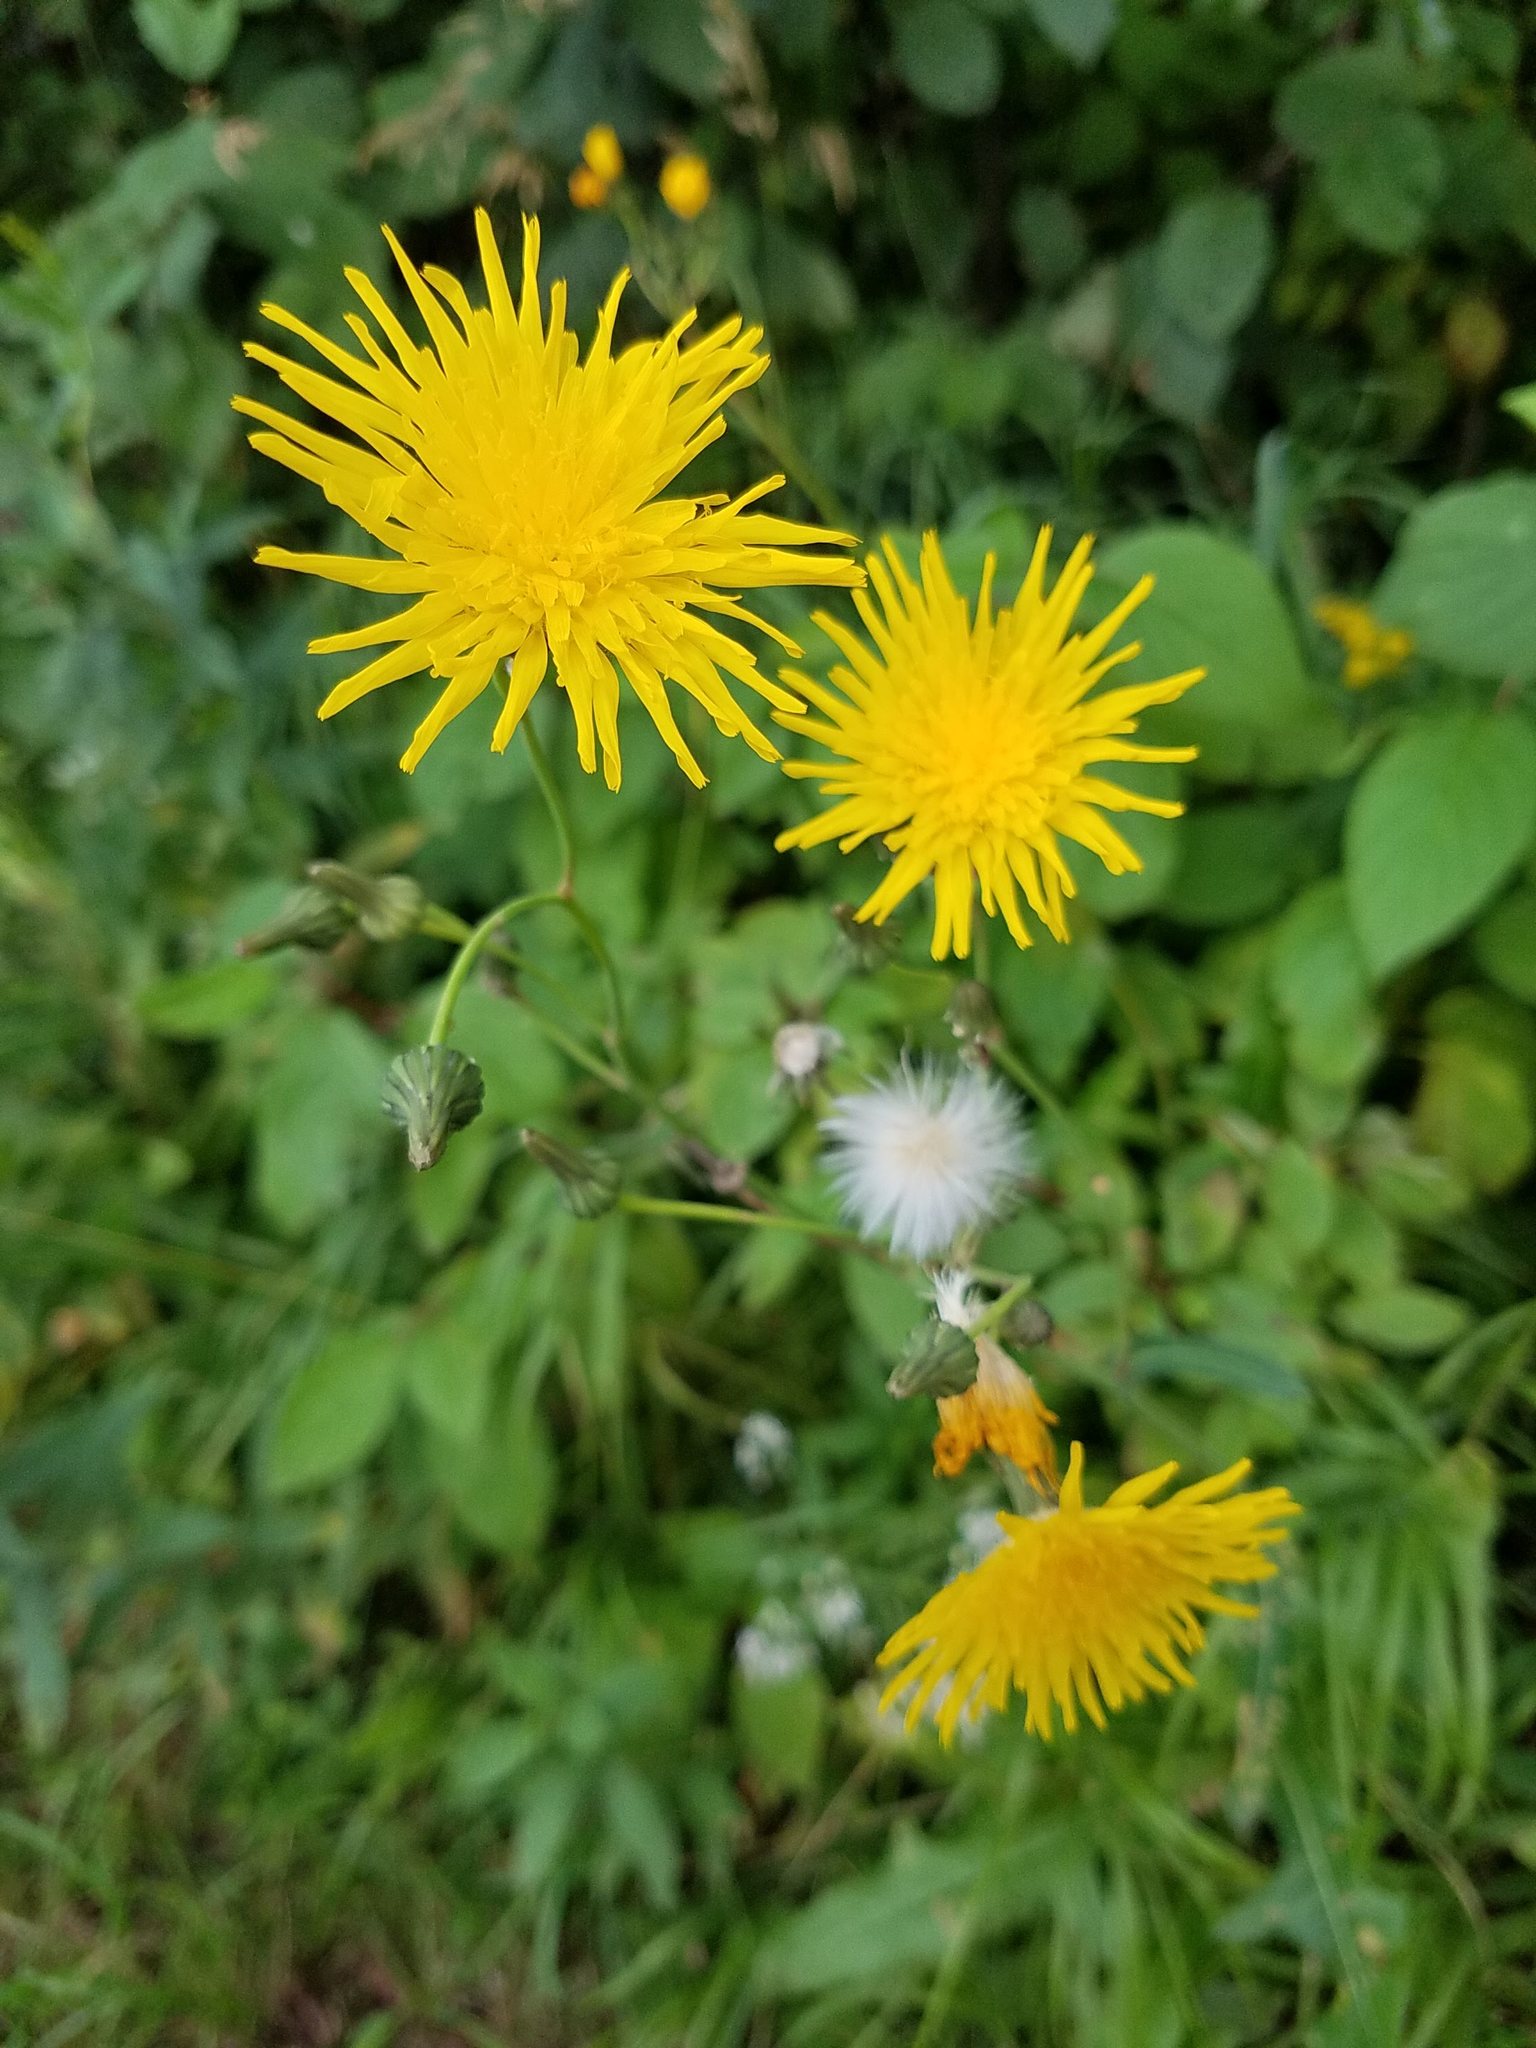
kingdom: Plantae
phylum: Tracheophyta
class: Magnoliopsida
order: Asterales
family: Asteraceae
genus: Sonchus
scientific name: Sonchus arvensis
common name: Perennial sow-thistle
